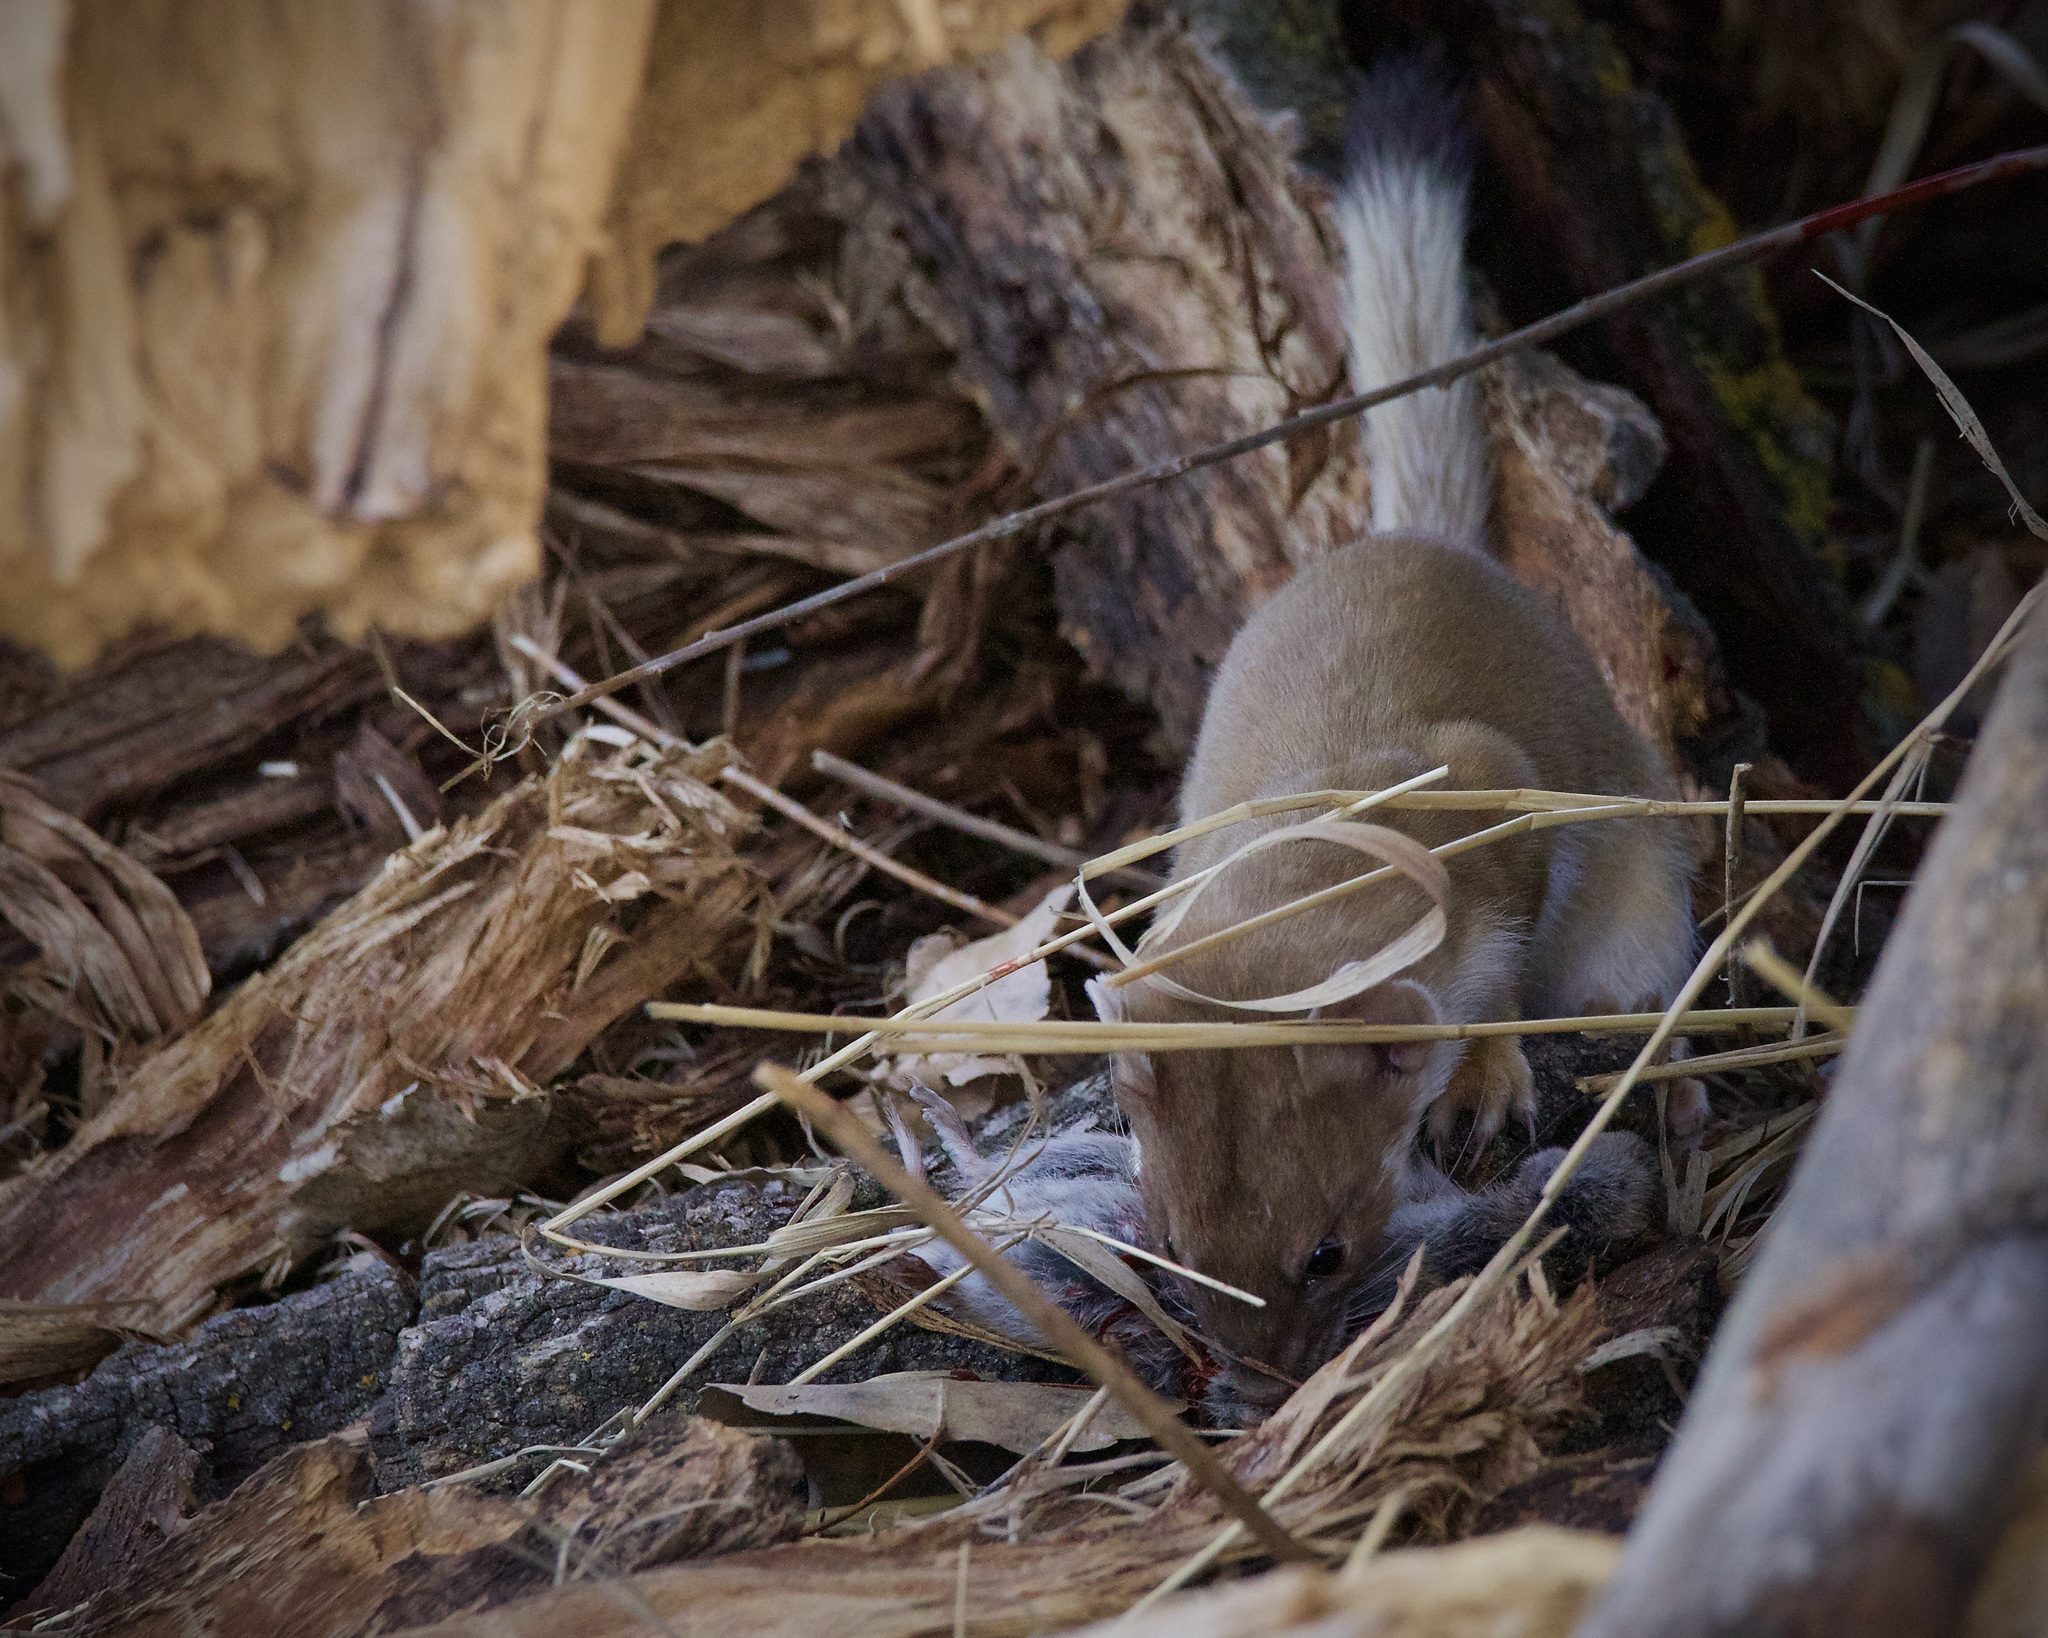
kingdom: Animalia
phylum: Chordata
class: Mammalia
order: Carnivora
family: Mustelidae
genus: Mustela
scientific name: Mustela
